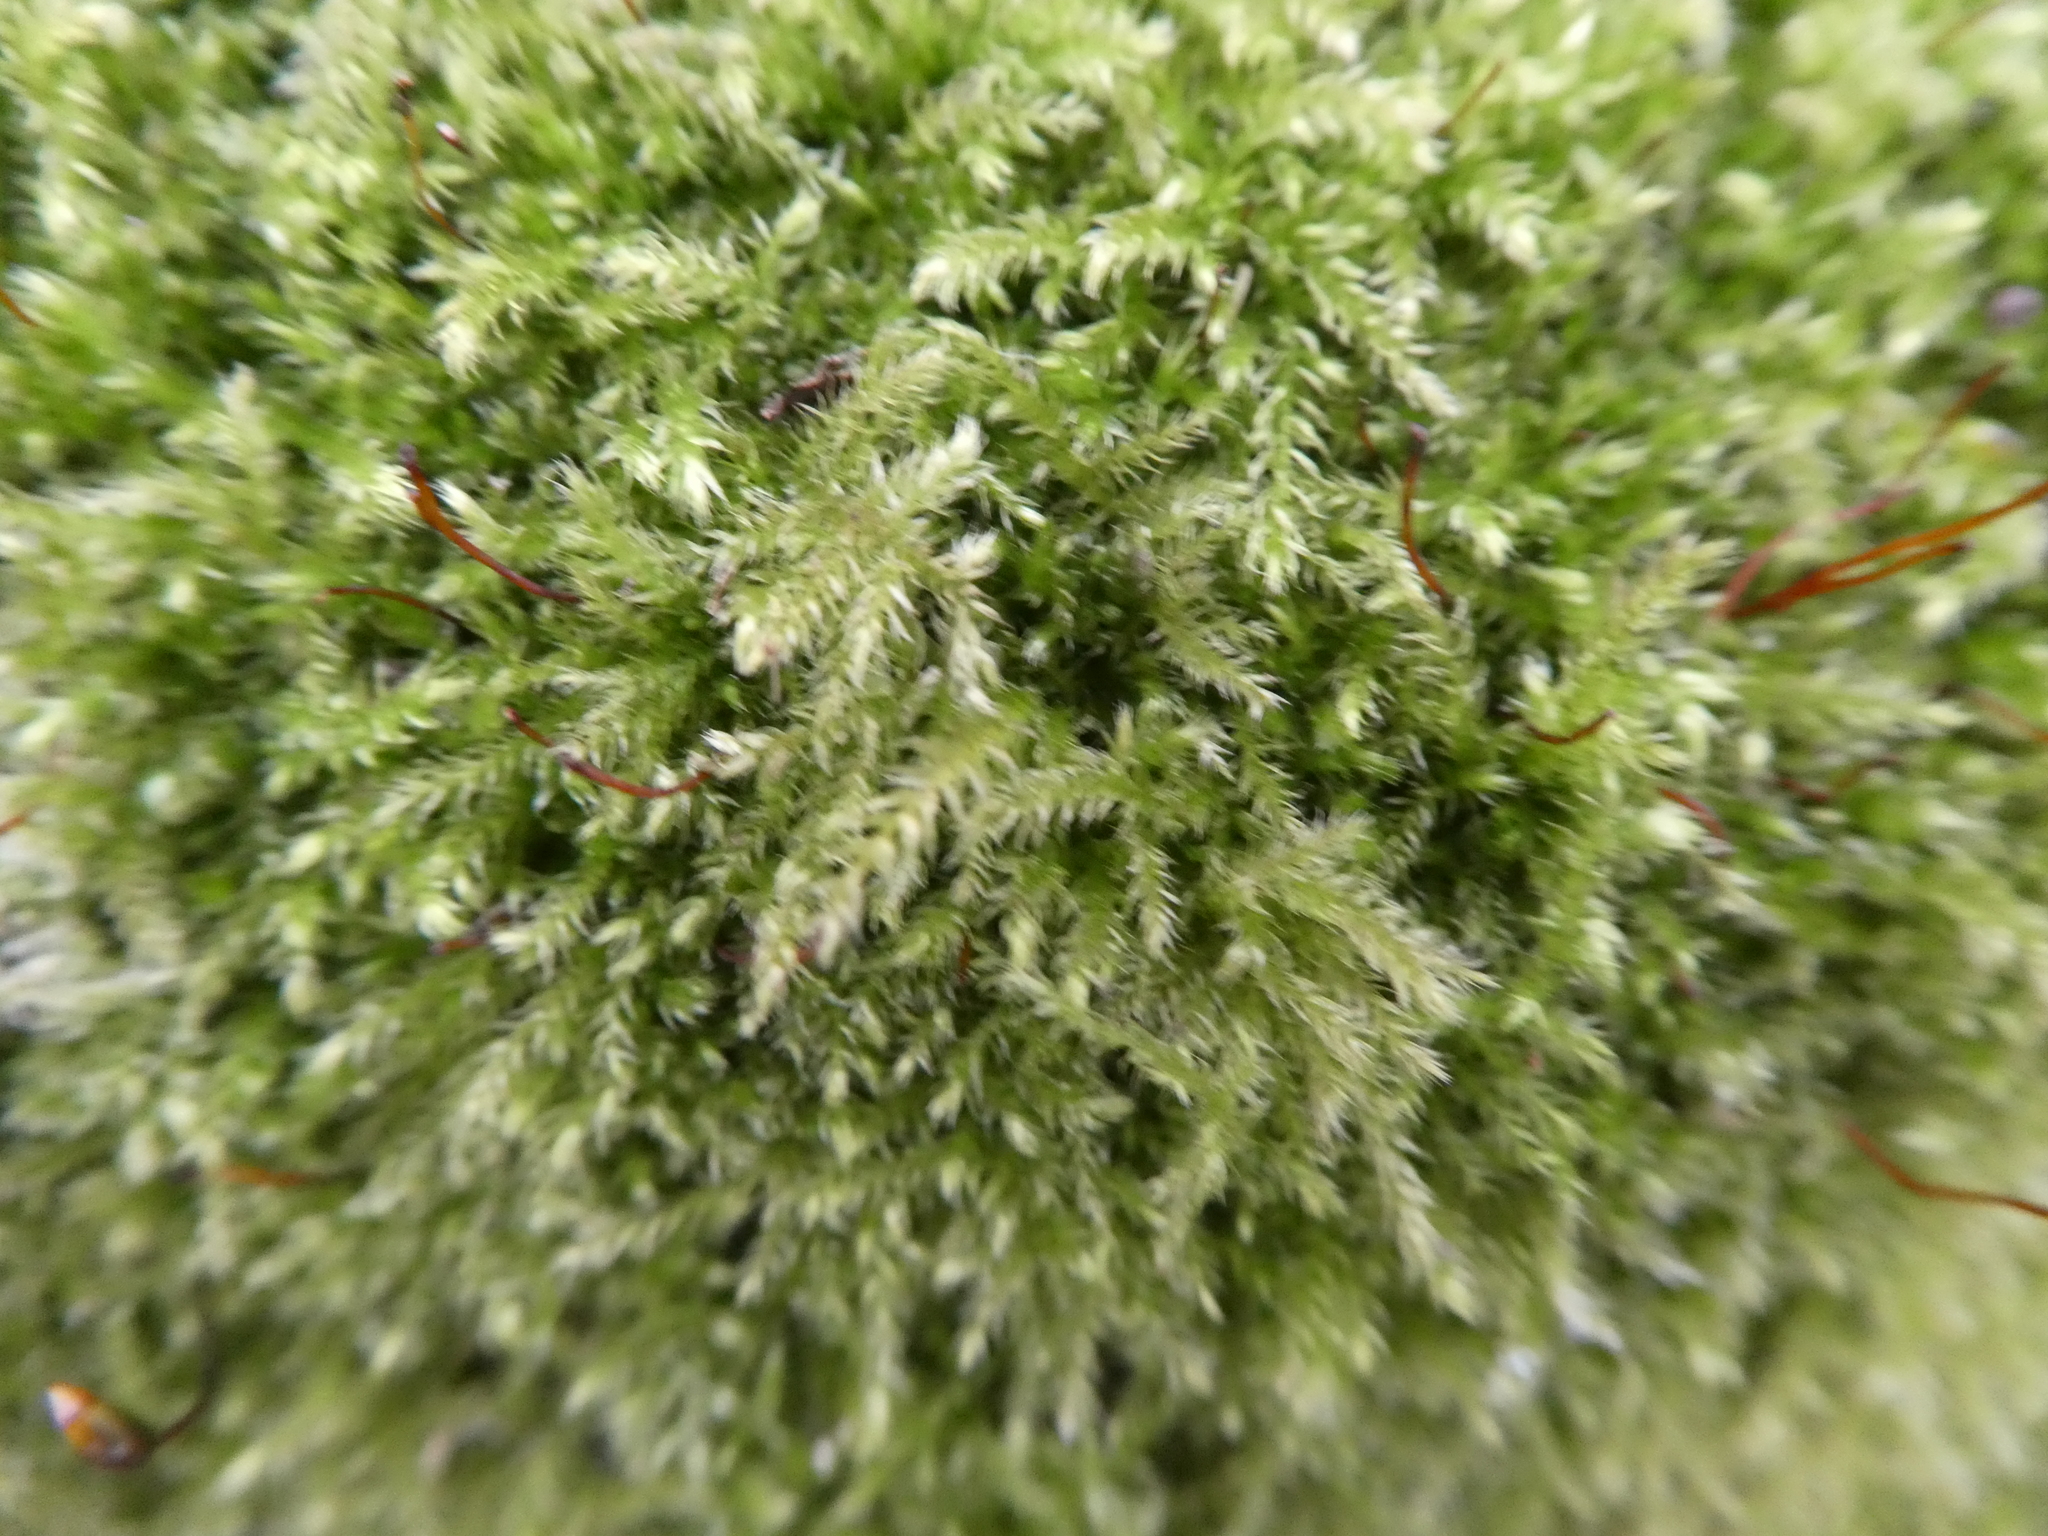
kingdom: Plantae
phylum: Bryophyta
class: Bryopsida
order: Hypnales
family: Brachytheciaceae
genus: Brachythecium
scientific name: Brachythecium rutabulum
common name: Rough-stalked feather-moss
